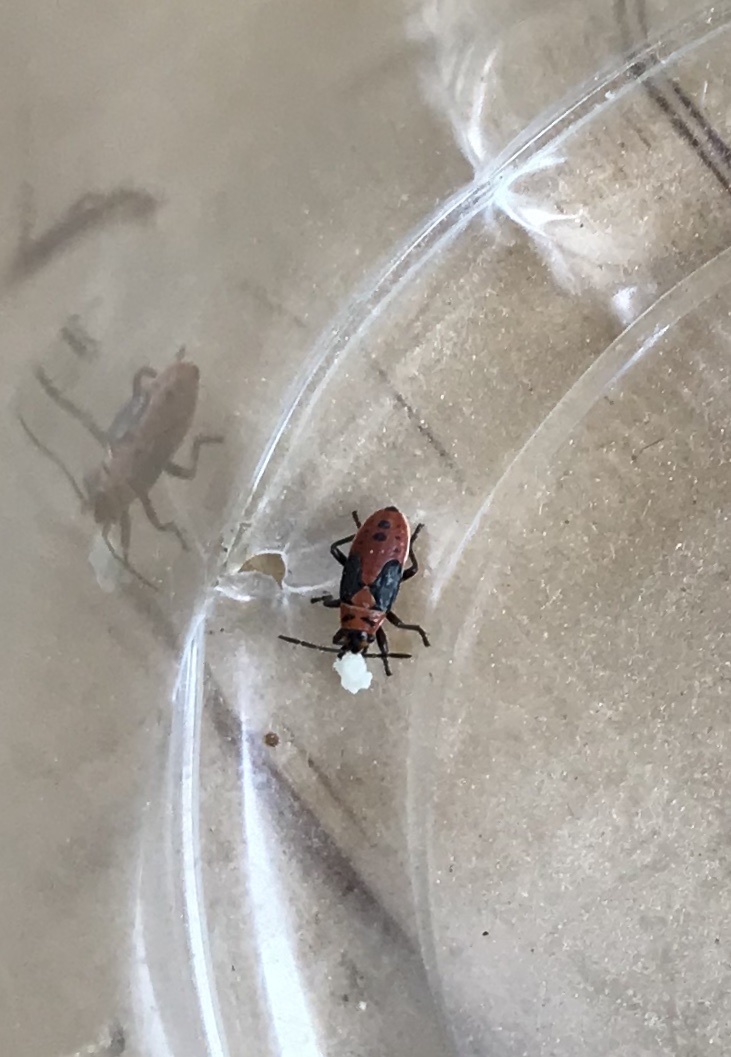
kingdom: Animalia
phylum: Arthropoda
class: Insecta
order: Hemiptera
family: Lygaeidae
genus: Lygaeus
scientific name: Lygaeus kalmii
